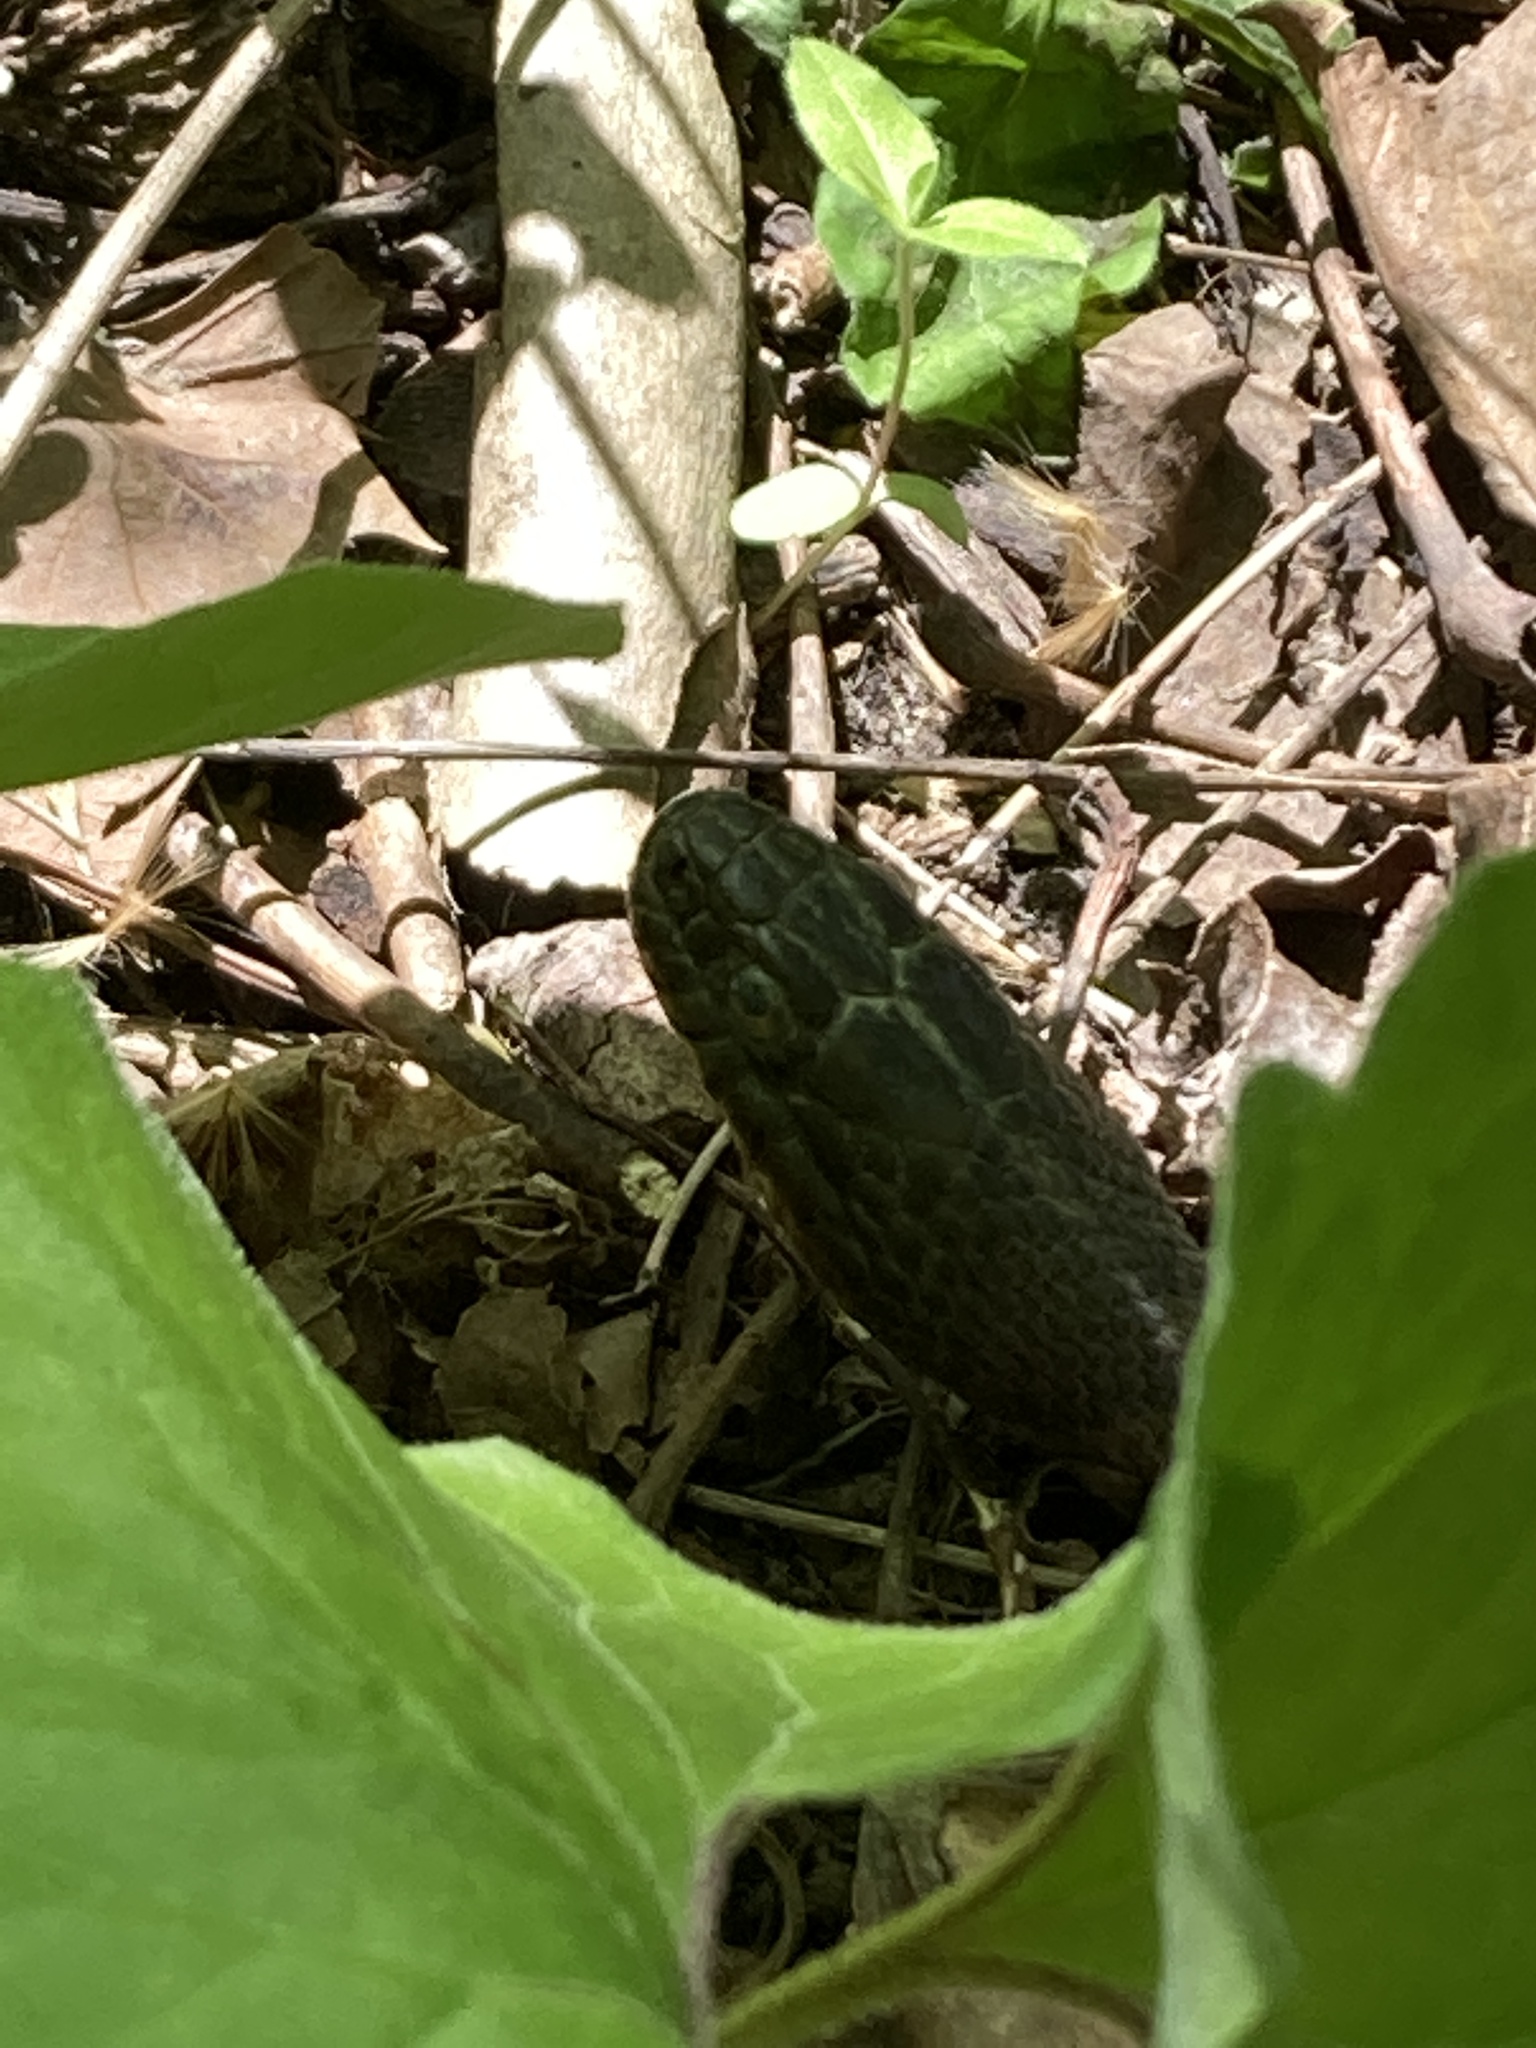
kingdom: Animalia
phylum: Chordata
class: Squamata
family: Colubridae
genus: Nerodia
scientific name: Nerodia sipedon
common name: Northern water snake
